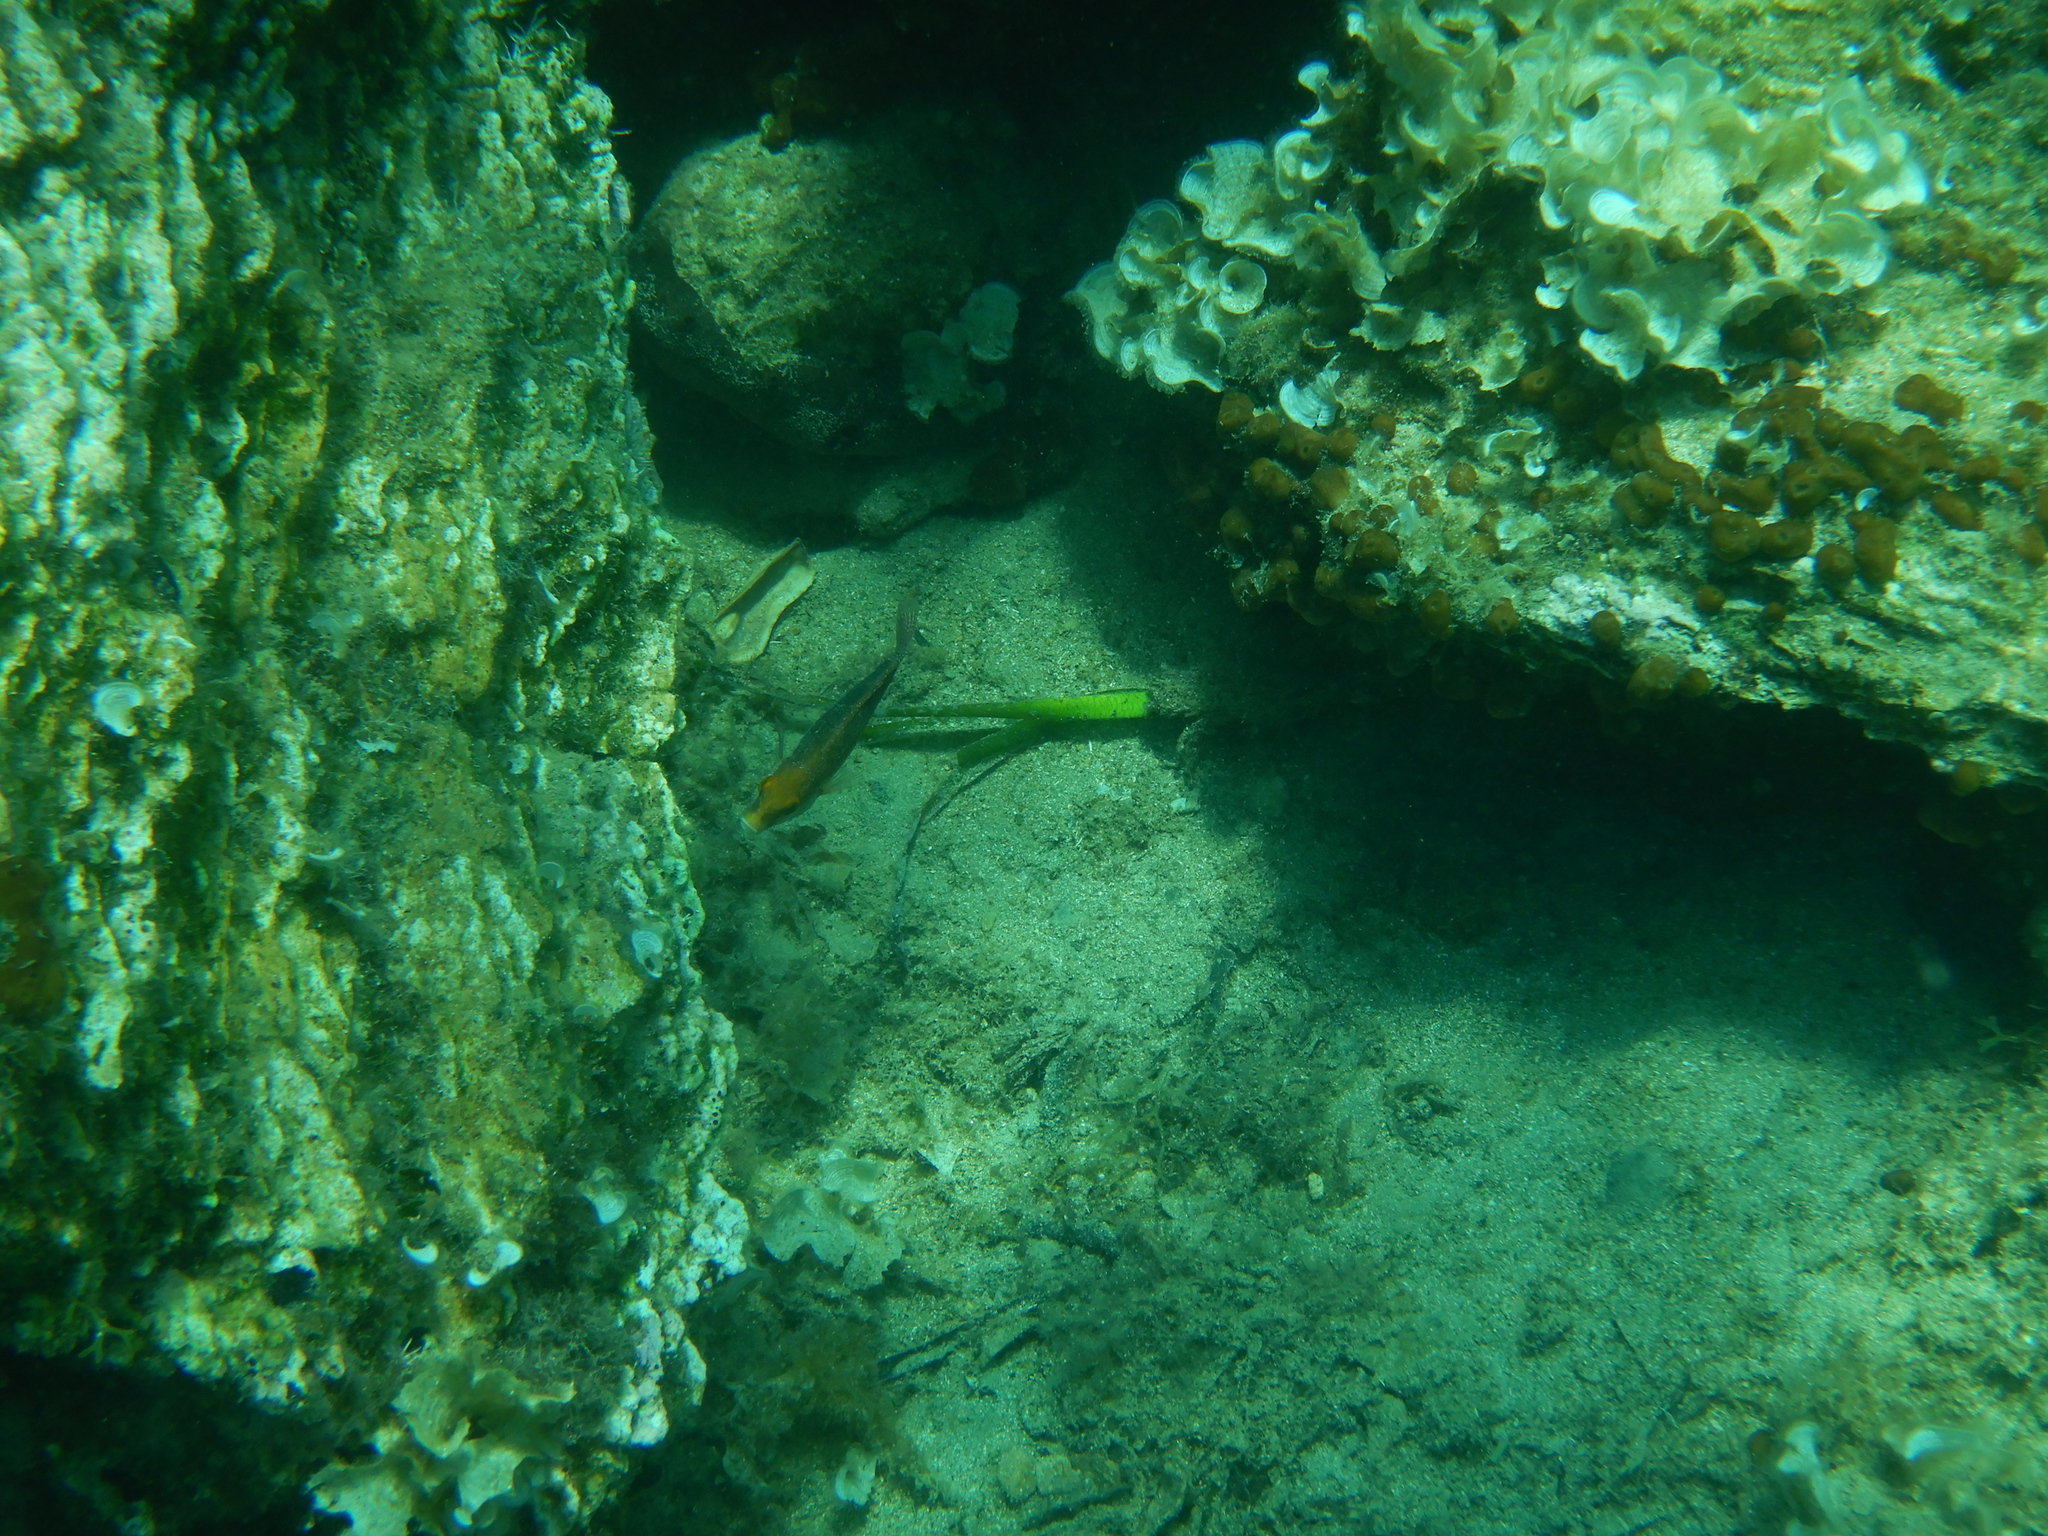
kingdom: Animalia
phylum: Chordata
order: Perciformes
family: Labridae
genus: Symphodus
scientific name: Symphodus mediterraneus
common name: Axillary wrasse
